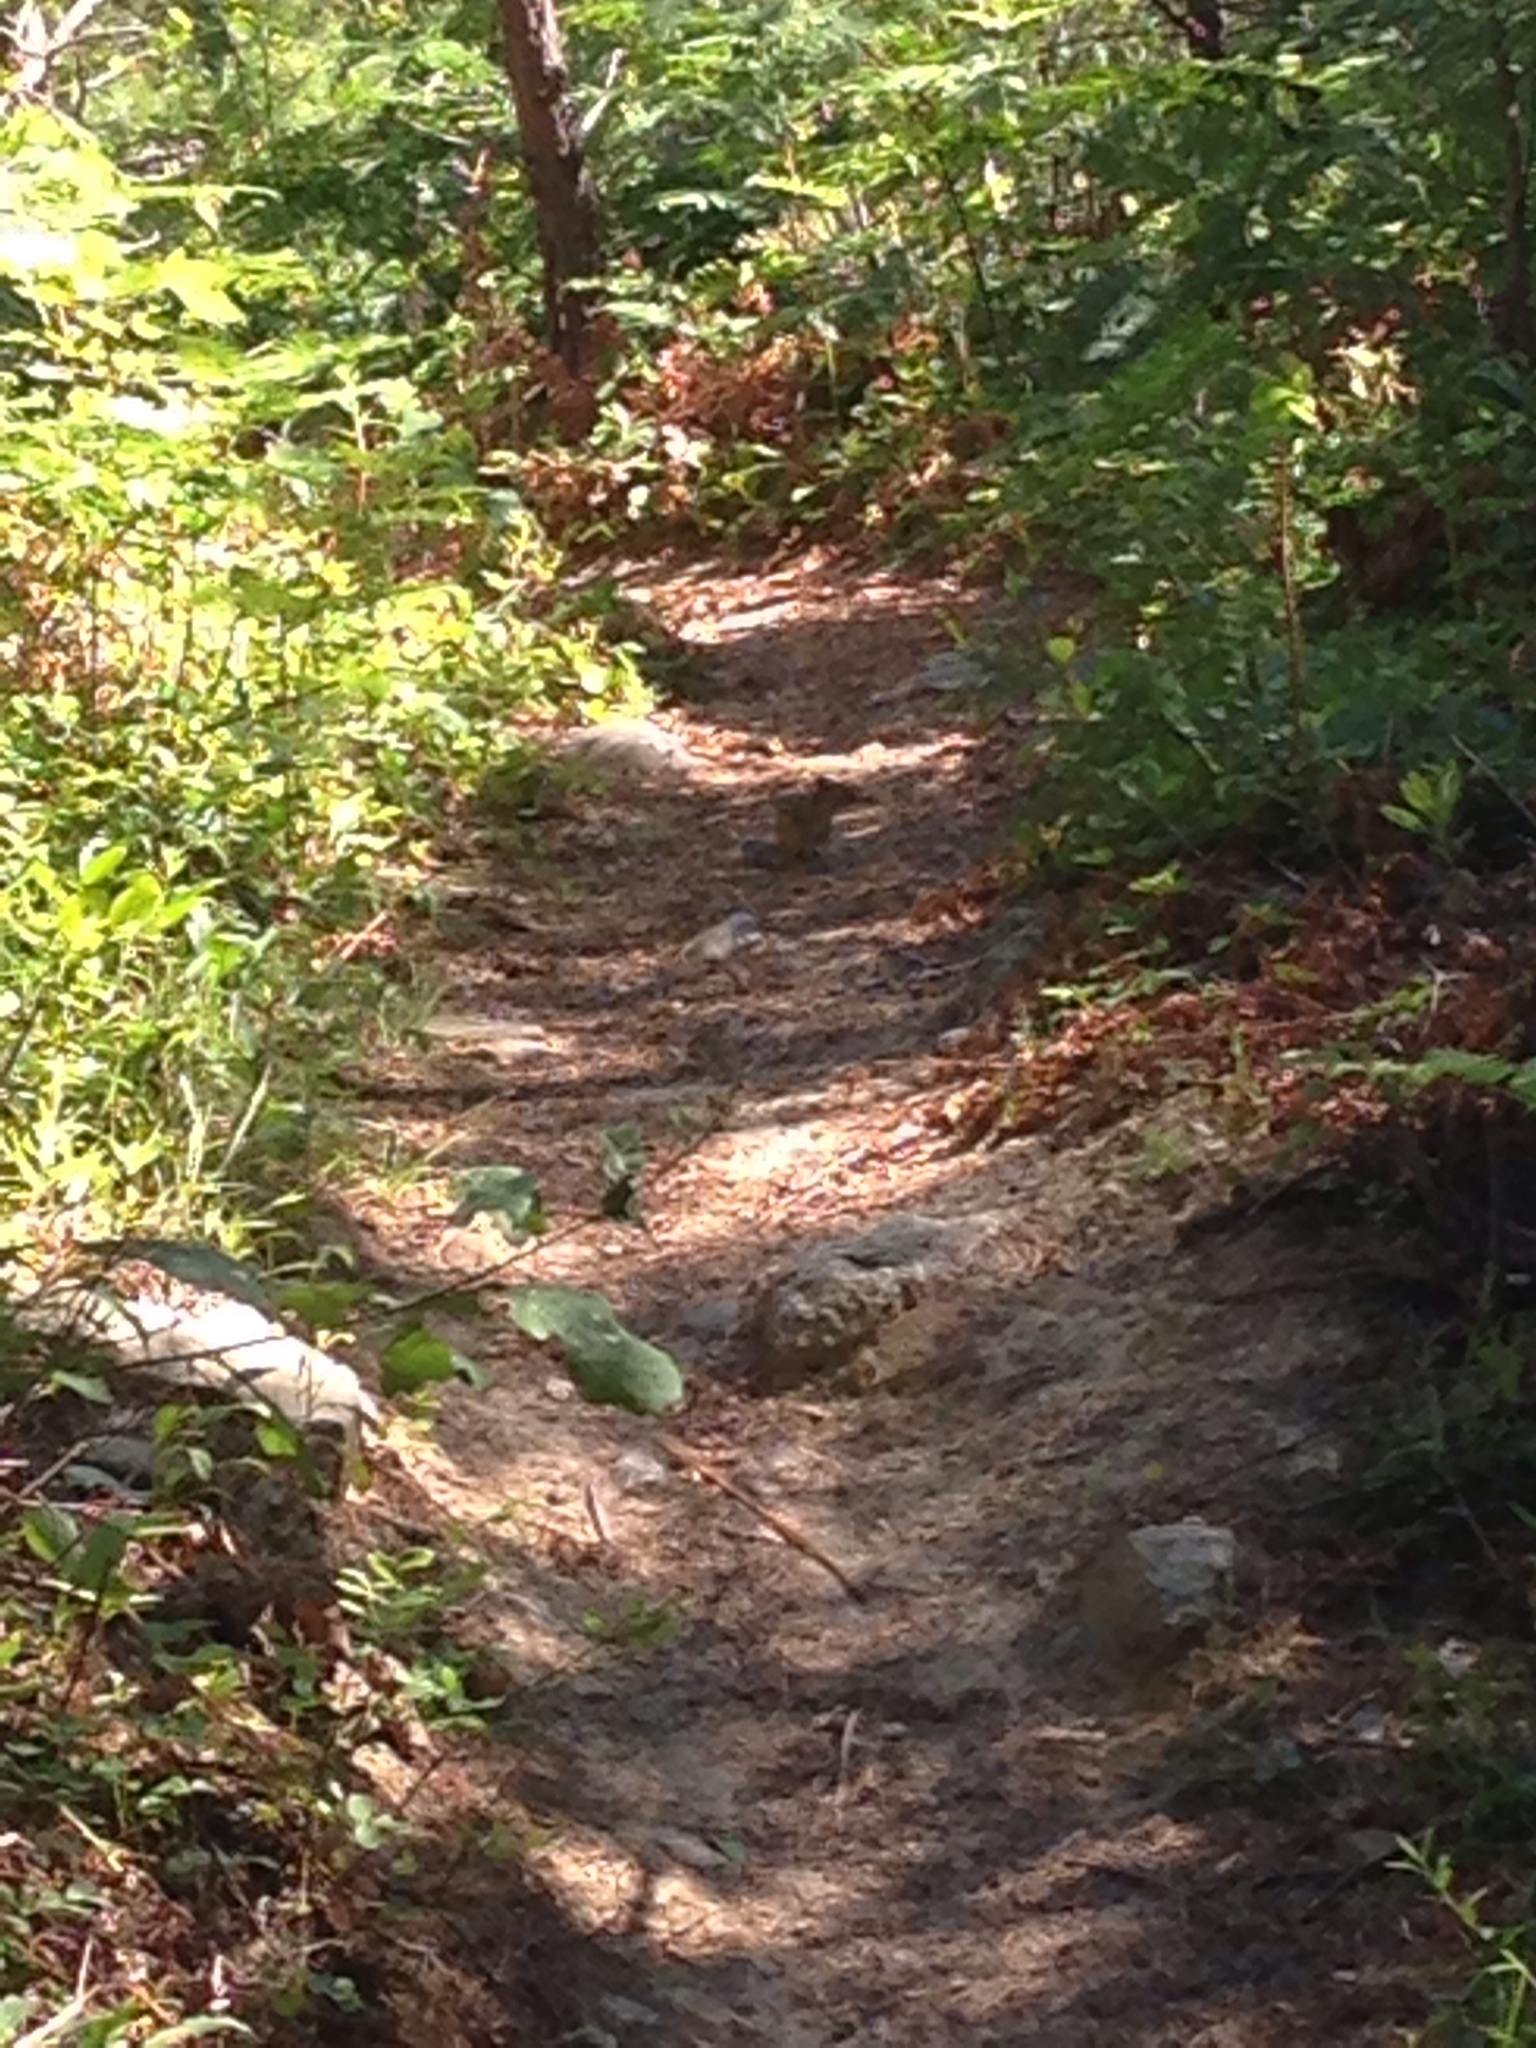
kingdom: Animalia
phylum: Chordata
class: Mammalia
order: Rodentia
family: Sciuridae
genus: Tamias
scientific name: Tamias striatus
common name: Eastern chipmunk
